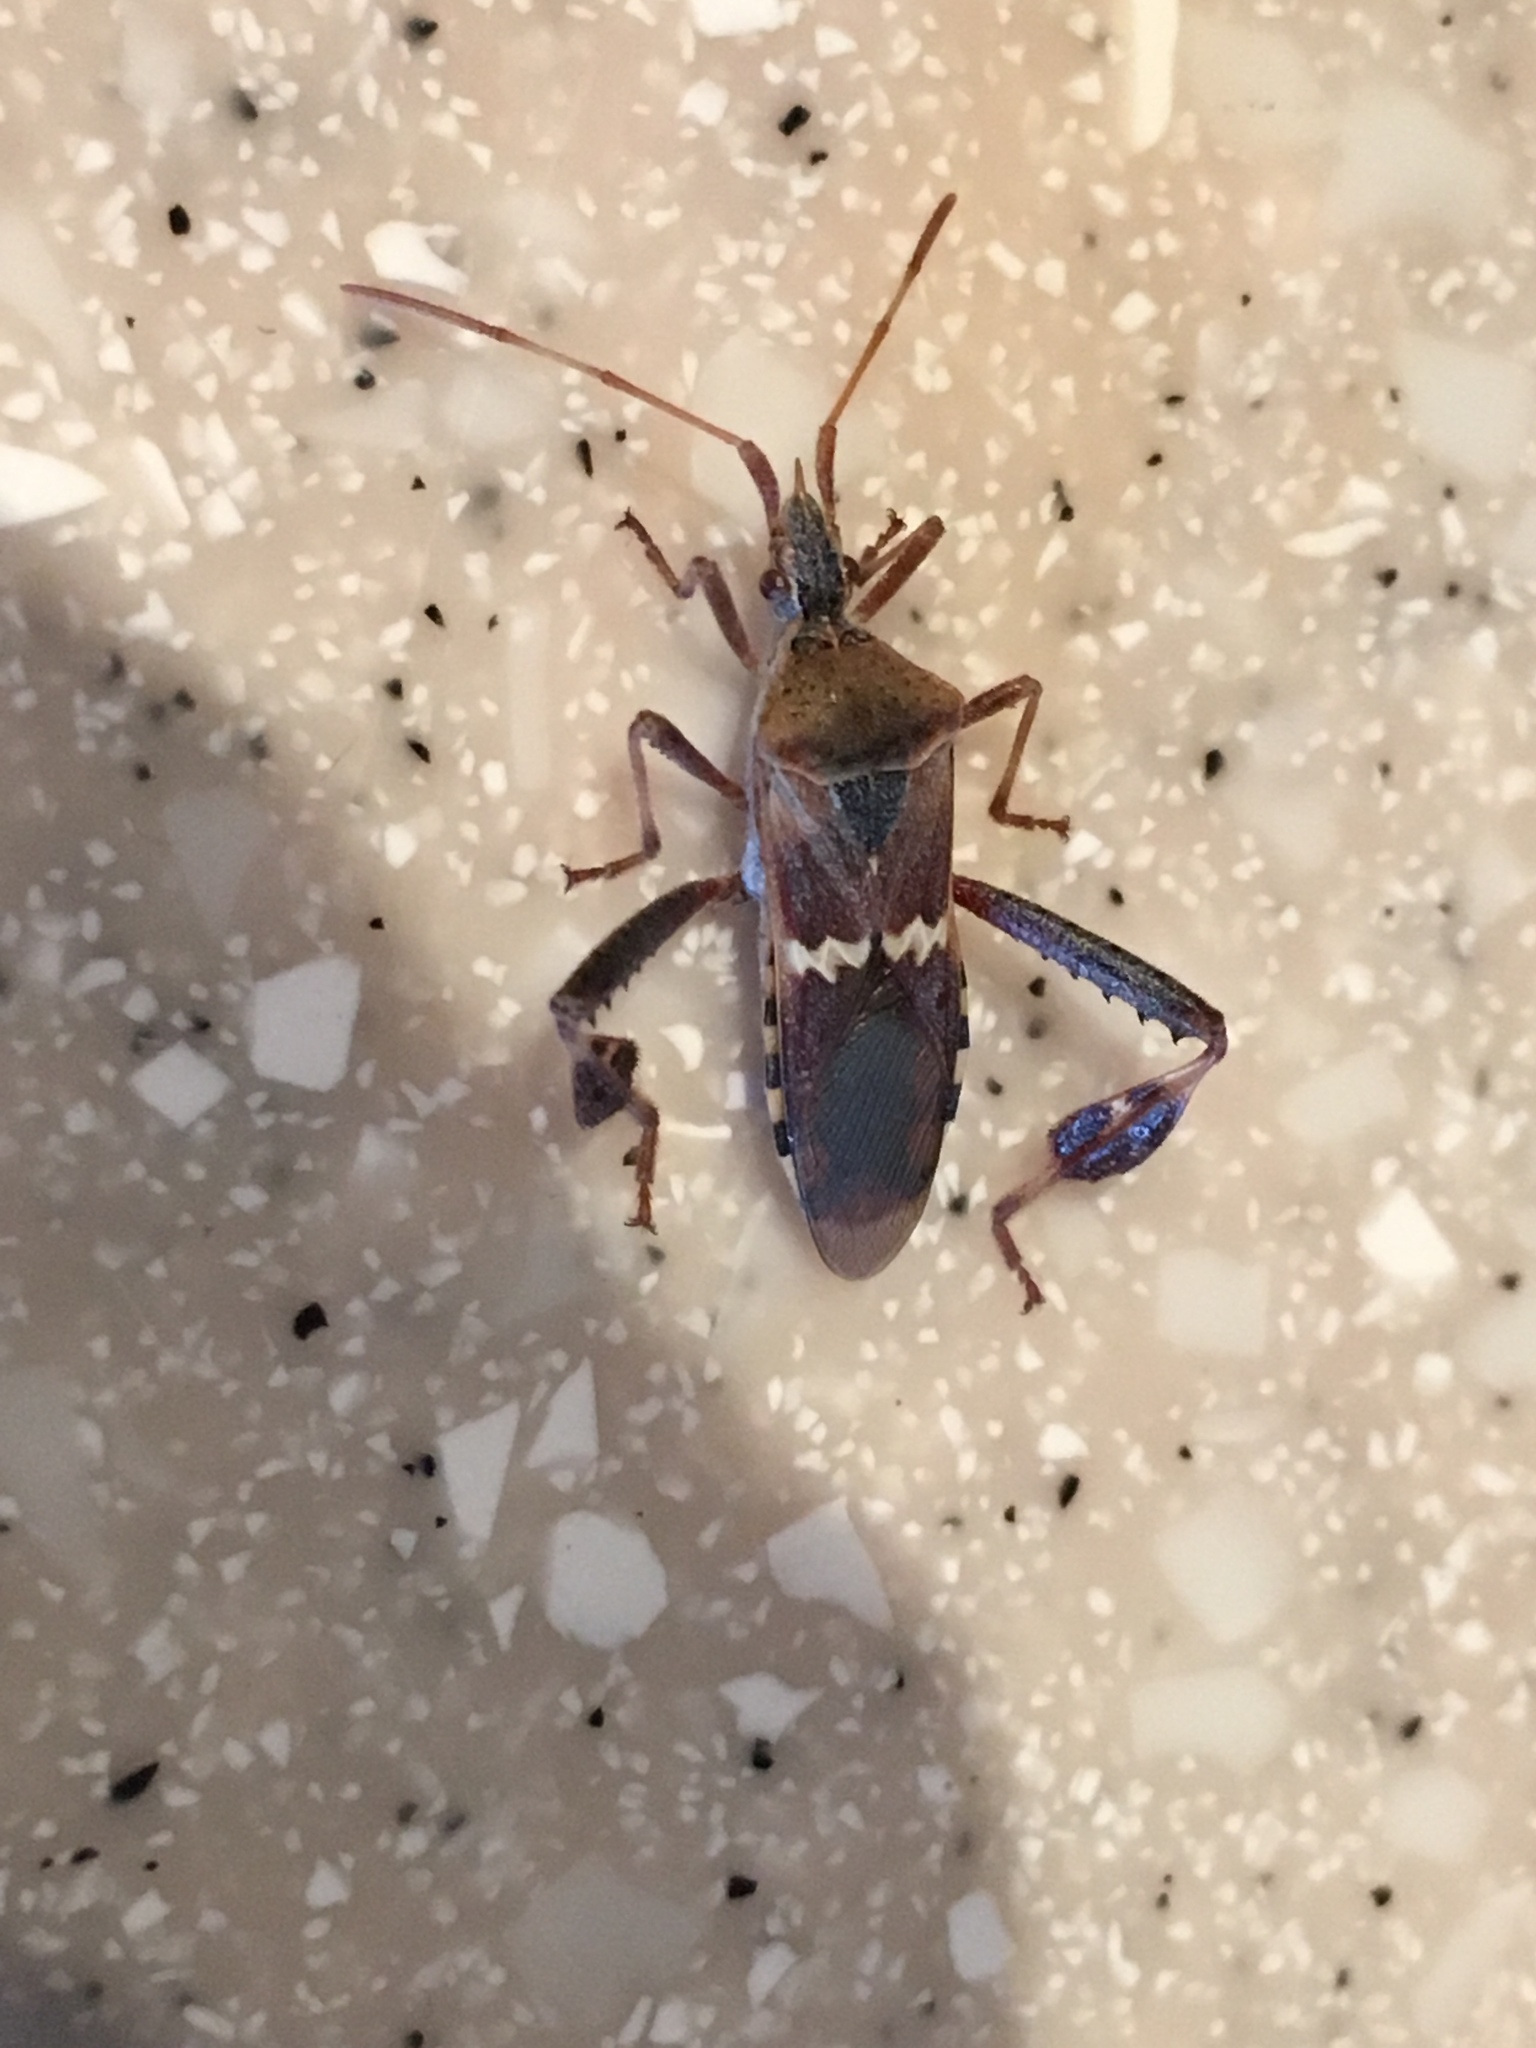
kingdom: Animalia
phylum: Arthropoda
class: Insecta
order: Hemiptera
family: Coreidae
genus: Leptoglossus
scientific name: Leptoglossus clypealis
